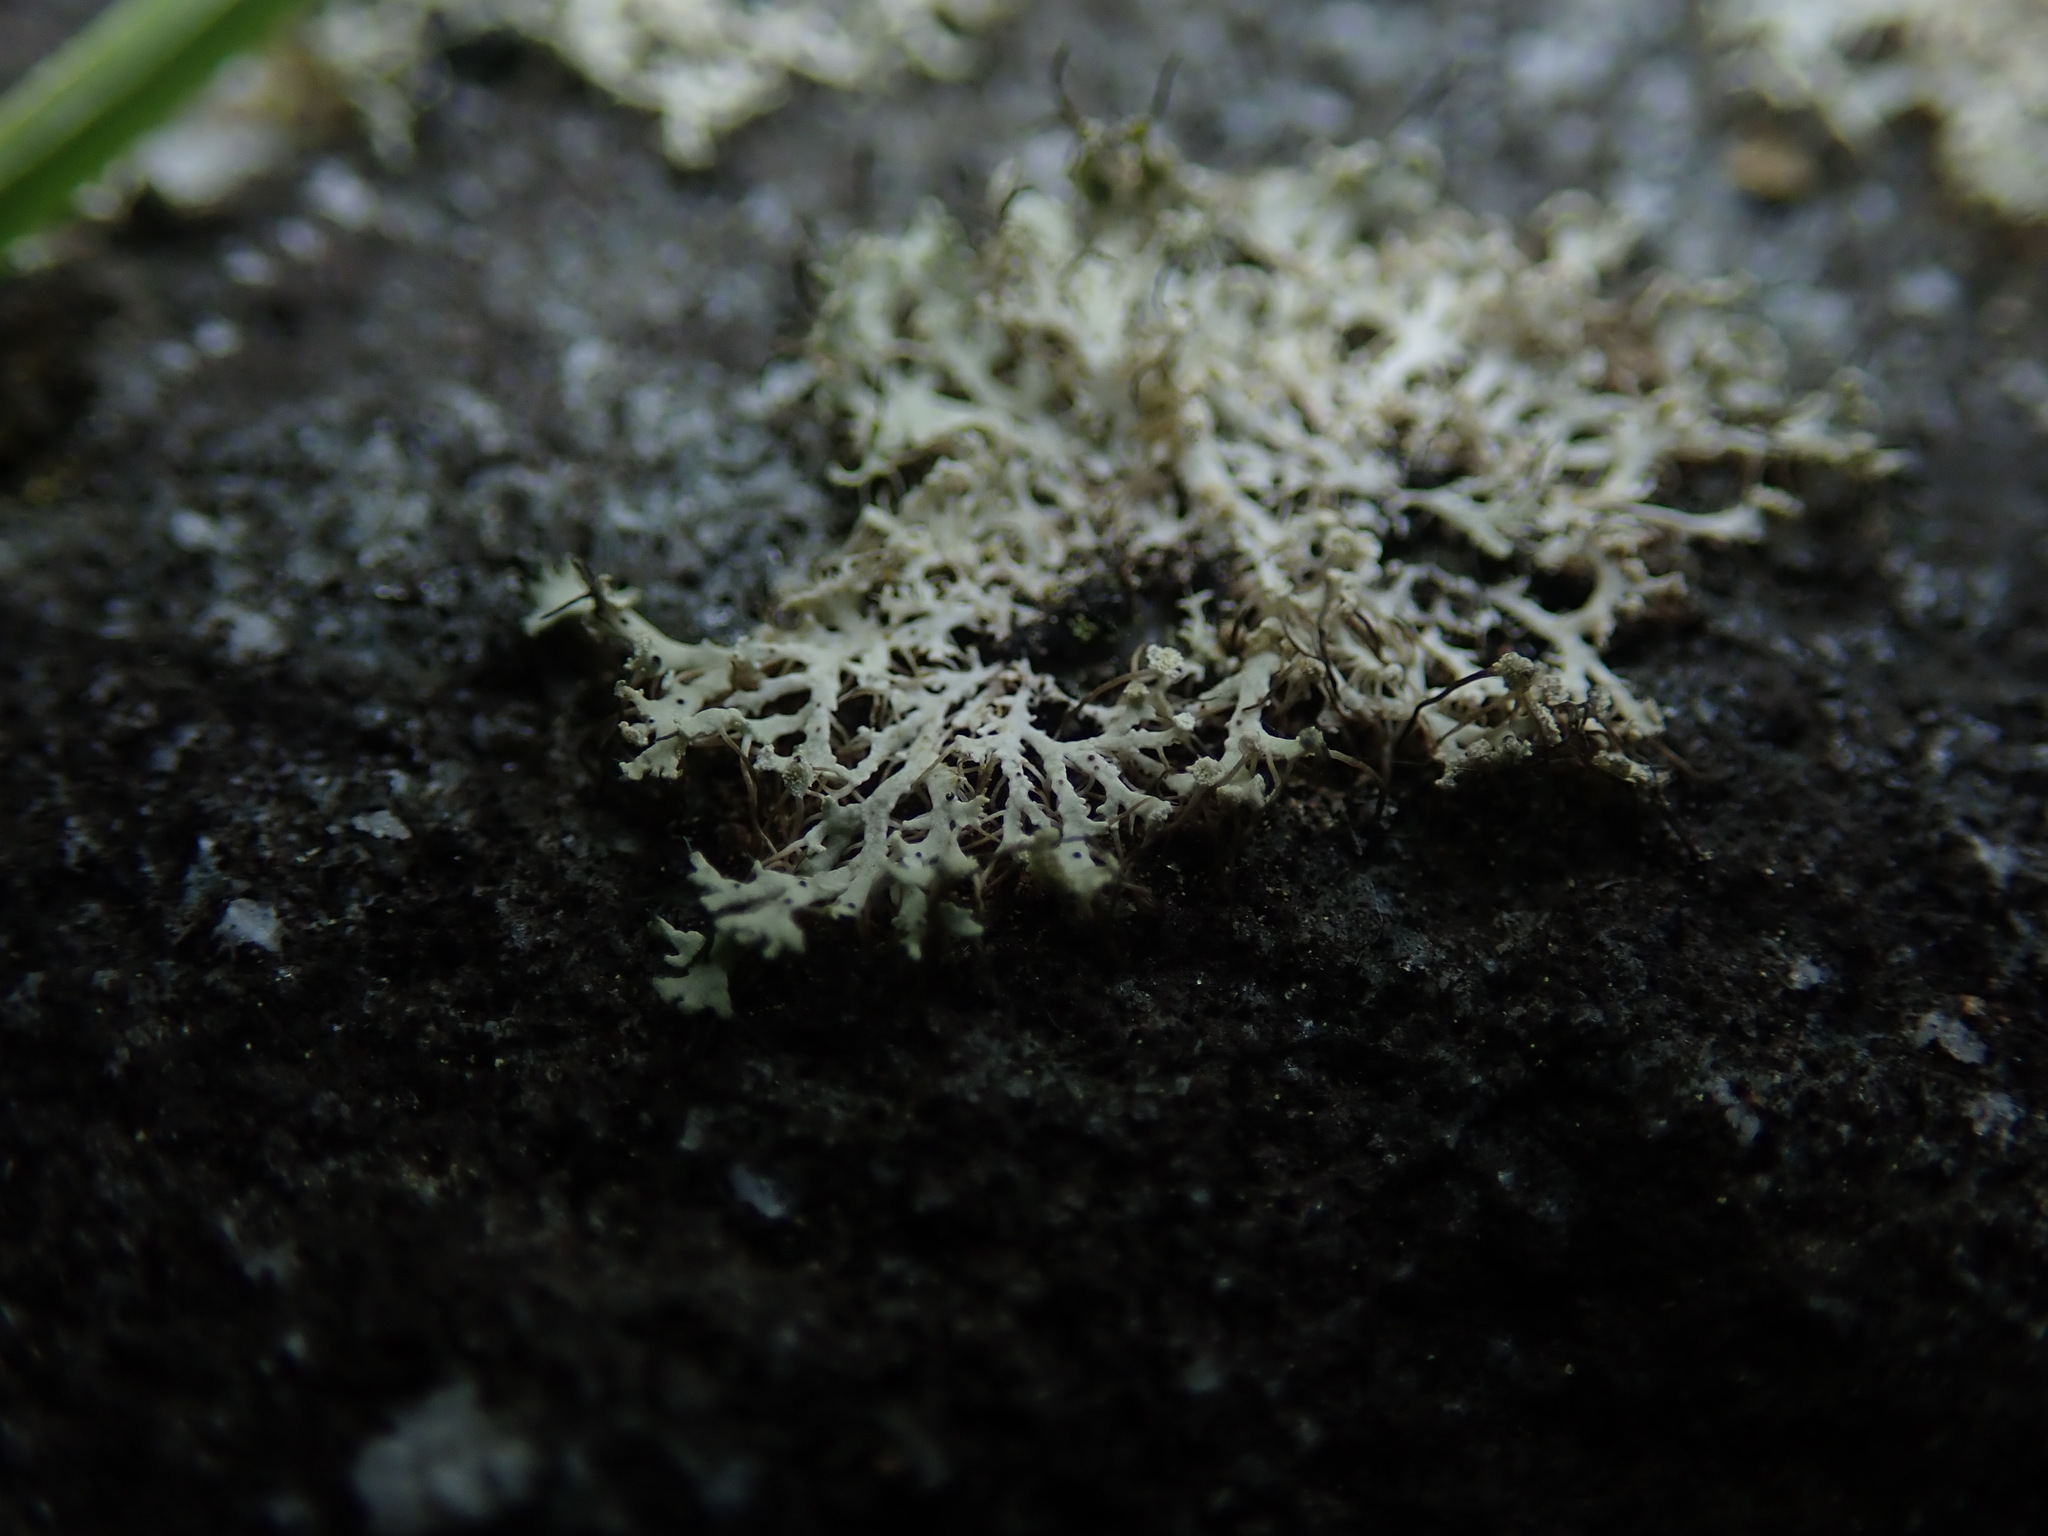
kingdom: Fungi
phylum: Ascomycota
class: Lecanoromycetes
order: Caliciales
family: Physciaceae
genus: Physcia
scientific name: Physcia adscendens
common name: Hooded rosette lichen
